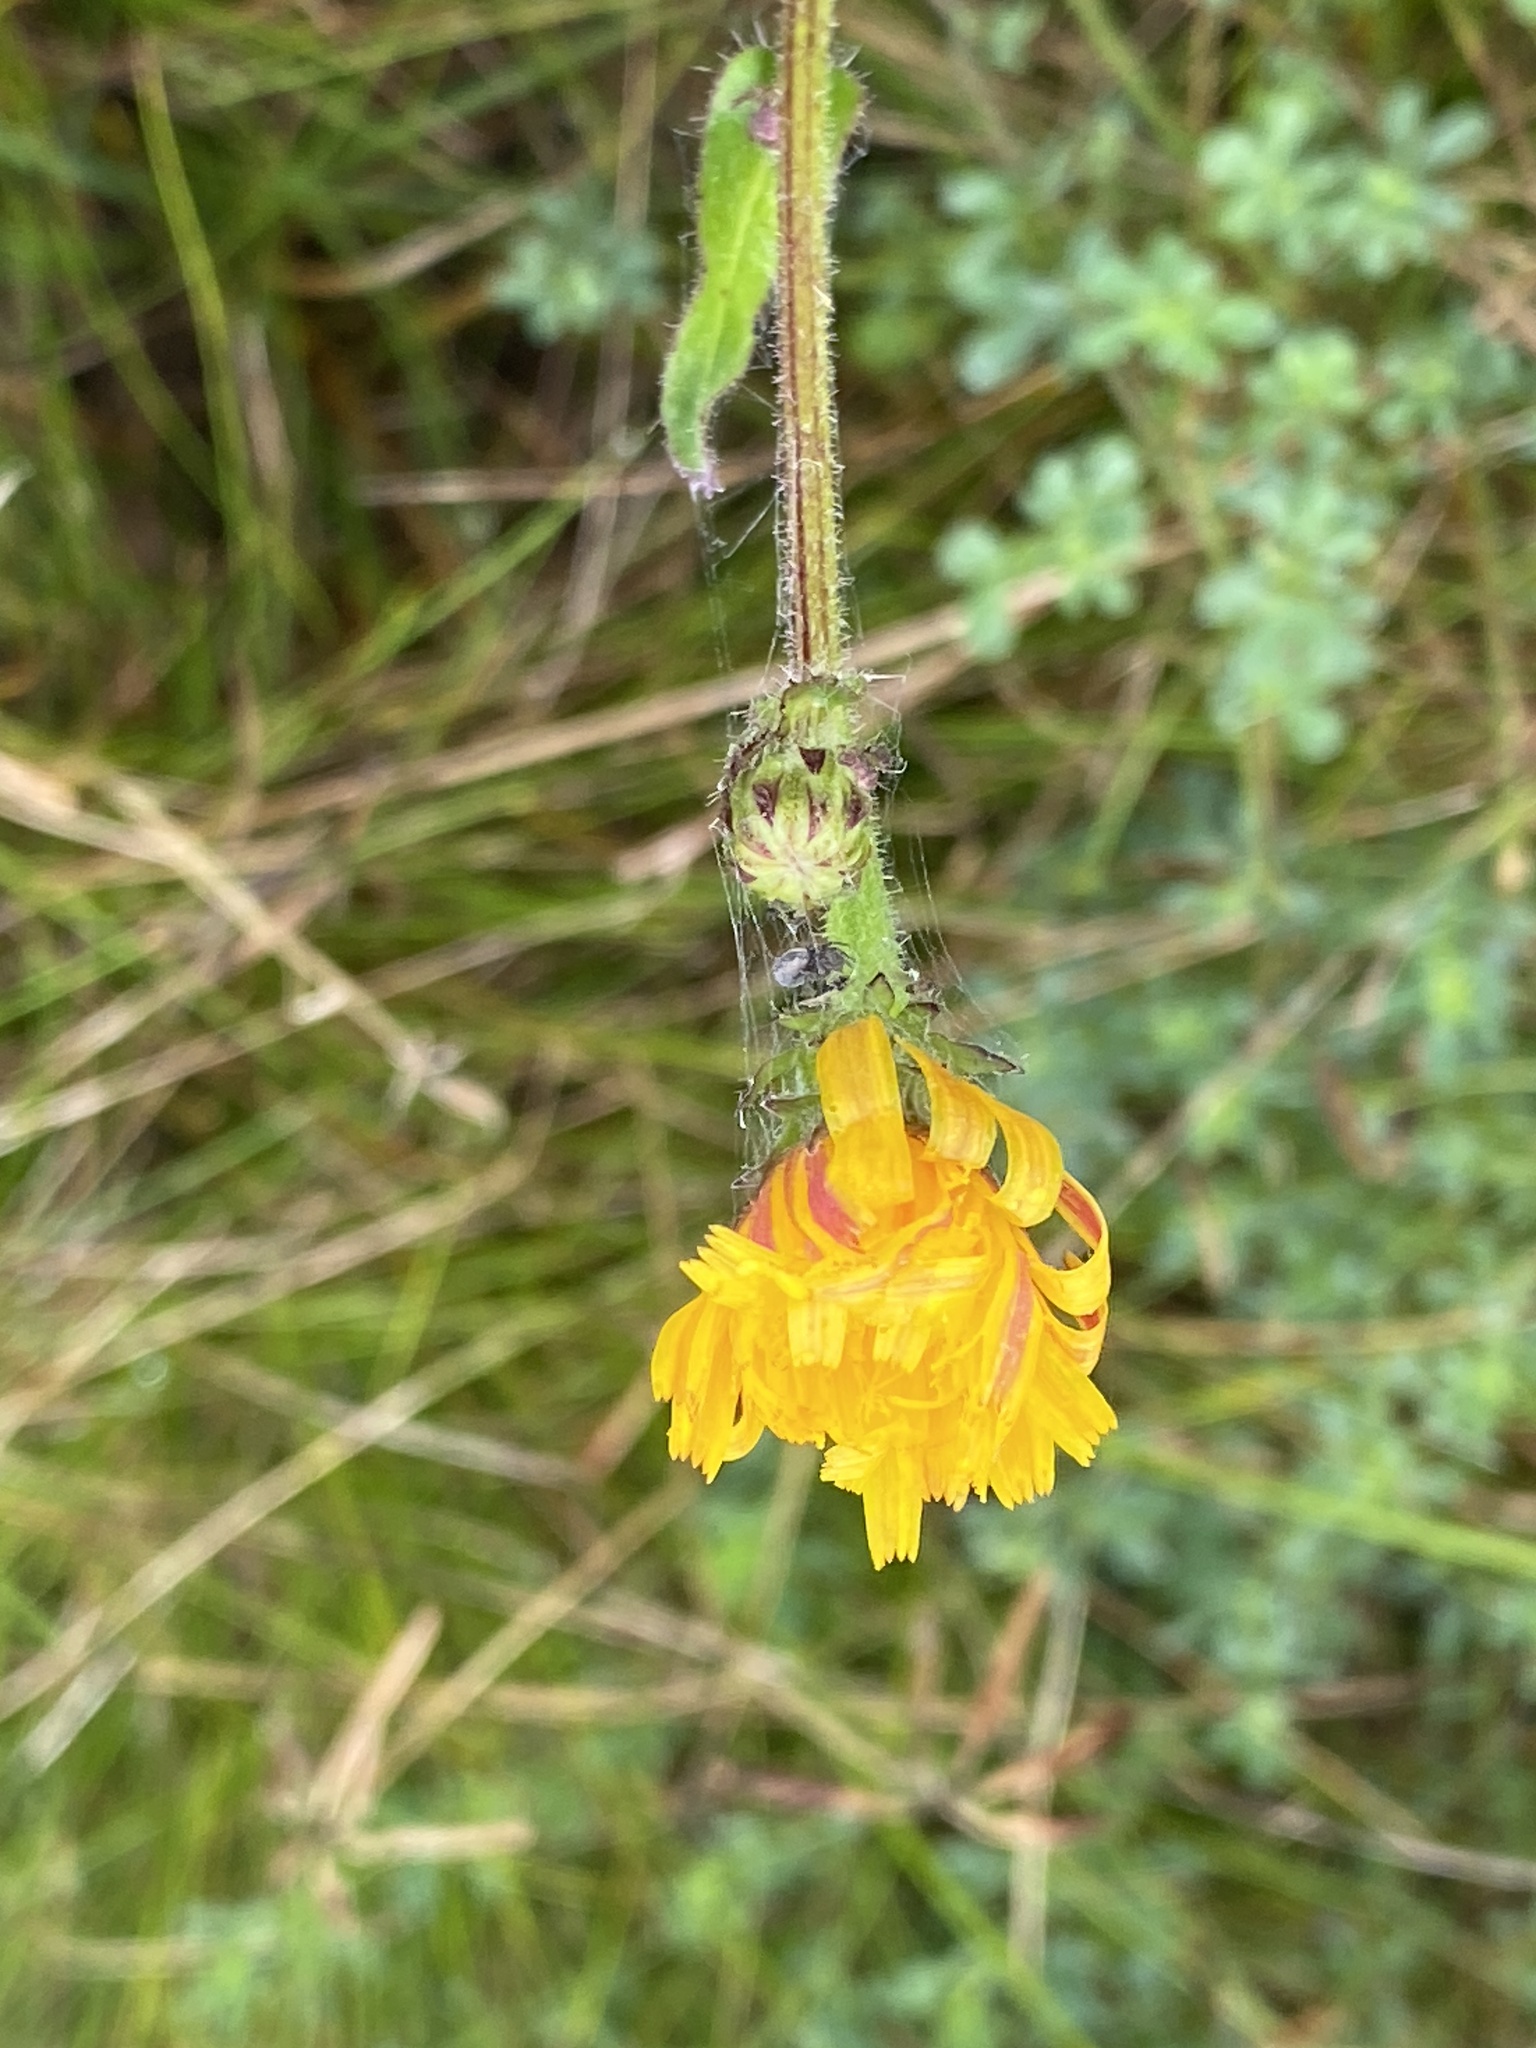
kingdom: Plantae
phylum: Tracheophyta
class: Magnoliopsida
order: Asterales
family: Asteraceae
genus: Picris
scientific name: Picris hieracioides
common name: Hawkweed oxtongue
